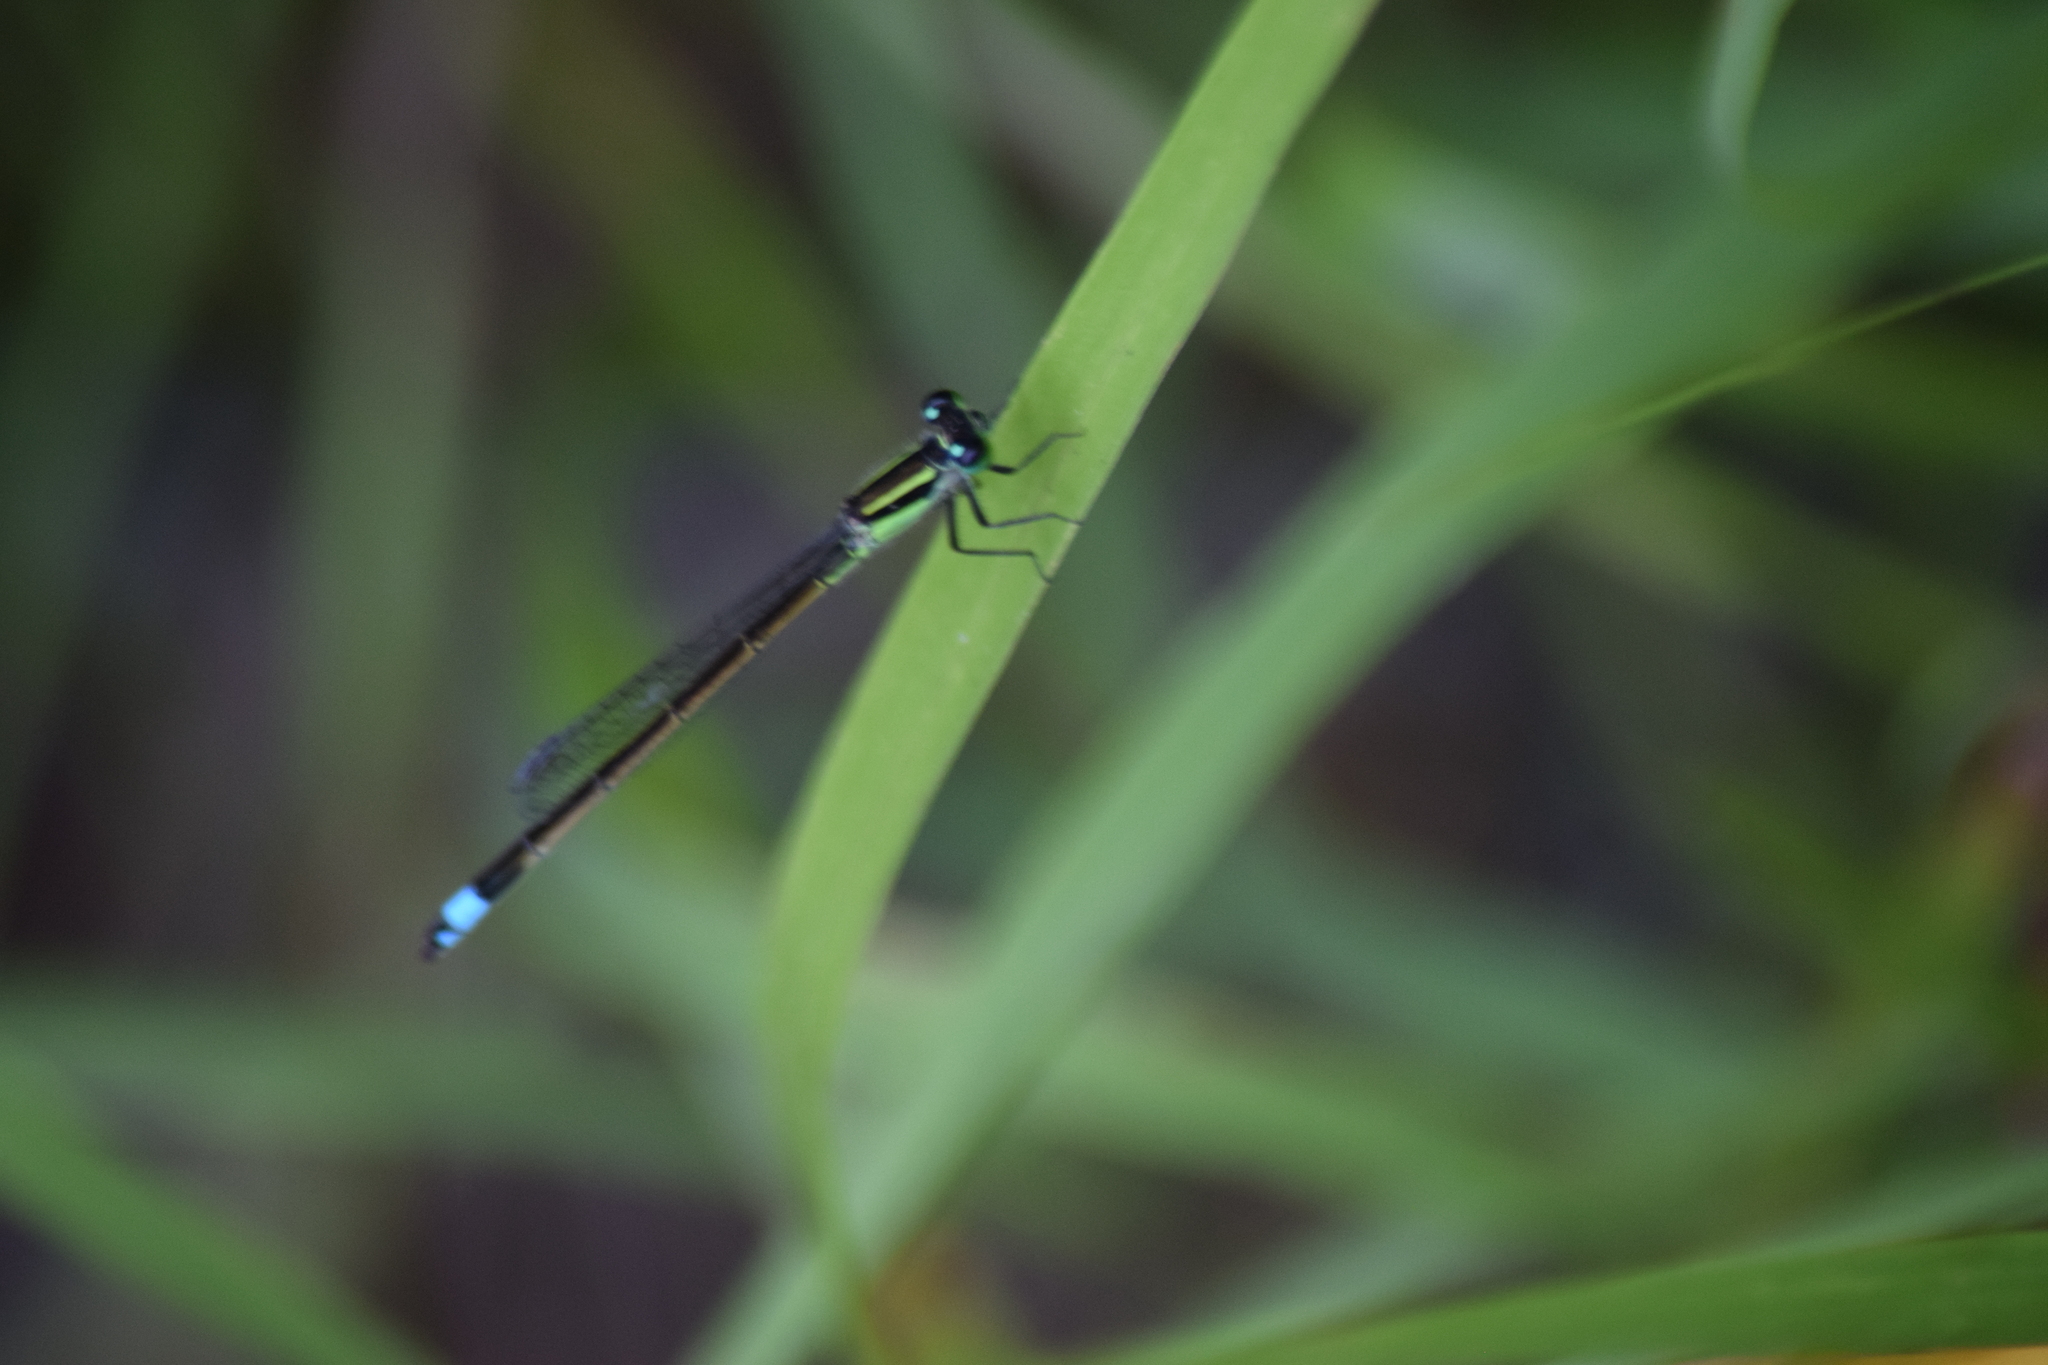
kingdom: Animalia
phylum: Arthropoda
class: Insecta
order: Odonata
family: Coenagrionidae
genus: Ischnura
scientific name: Ischnura ramburii
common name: Rambur's forktail
